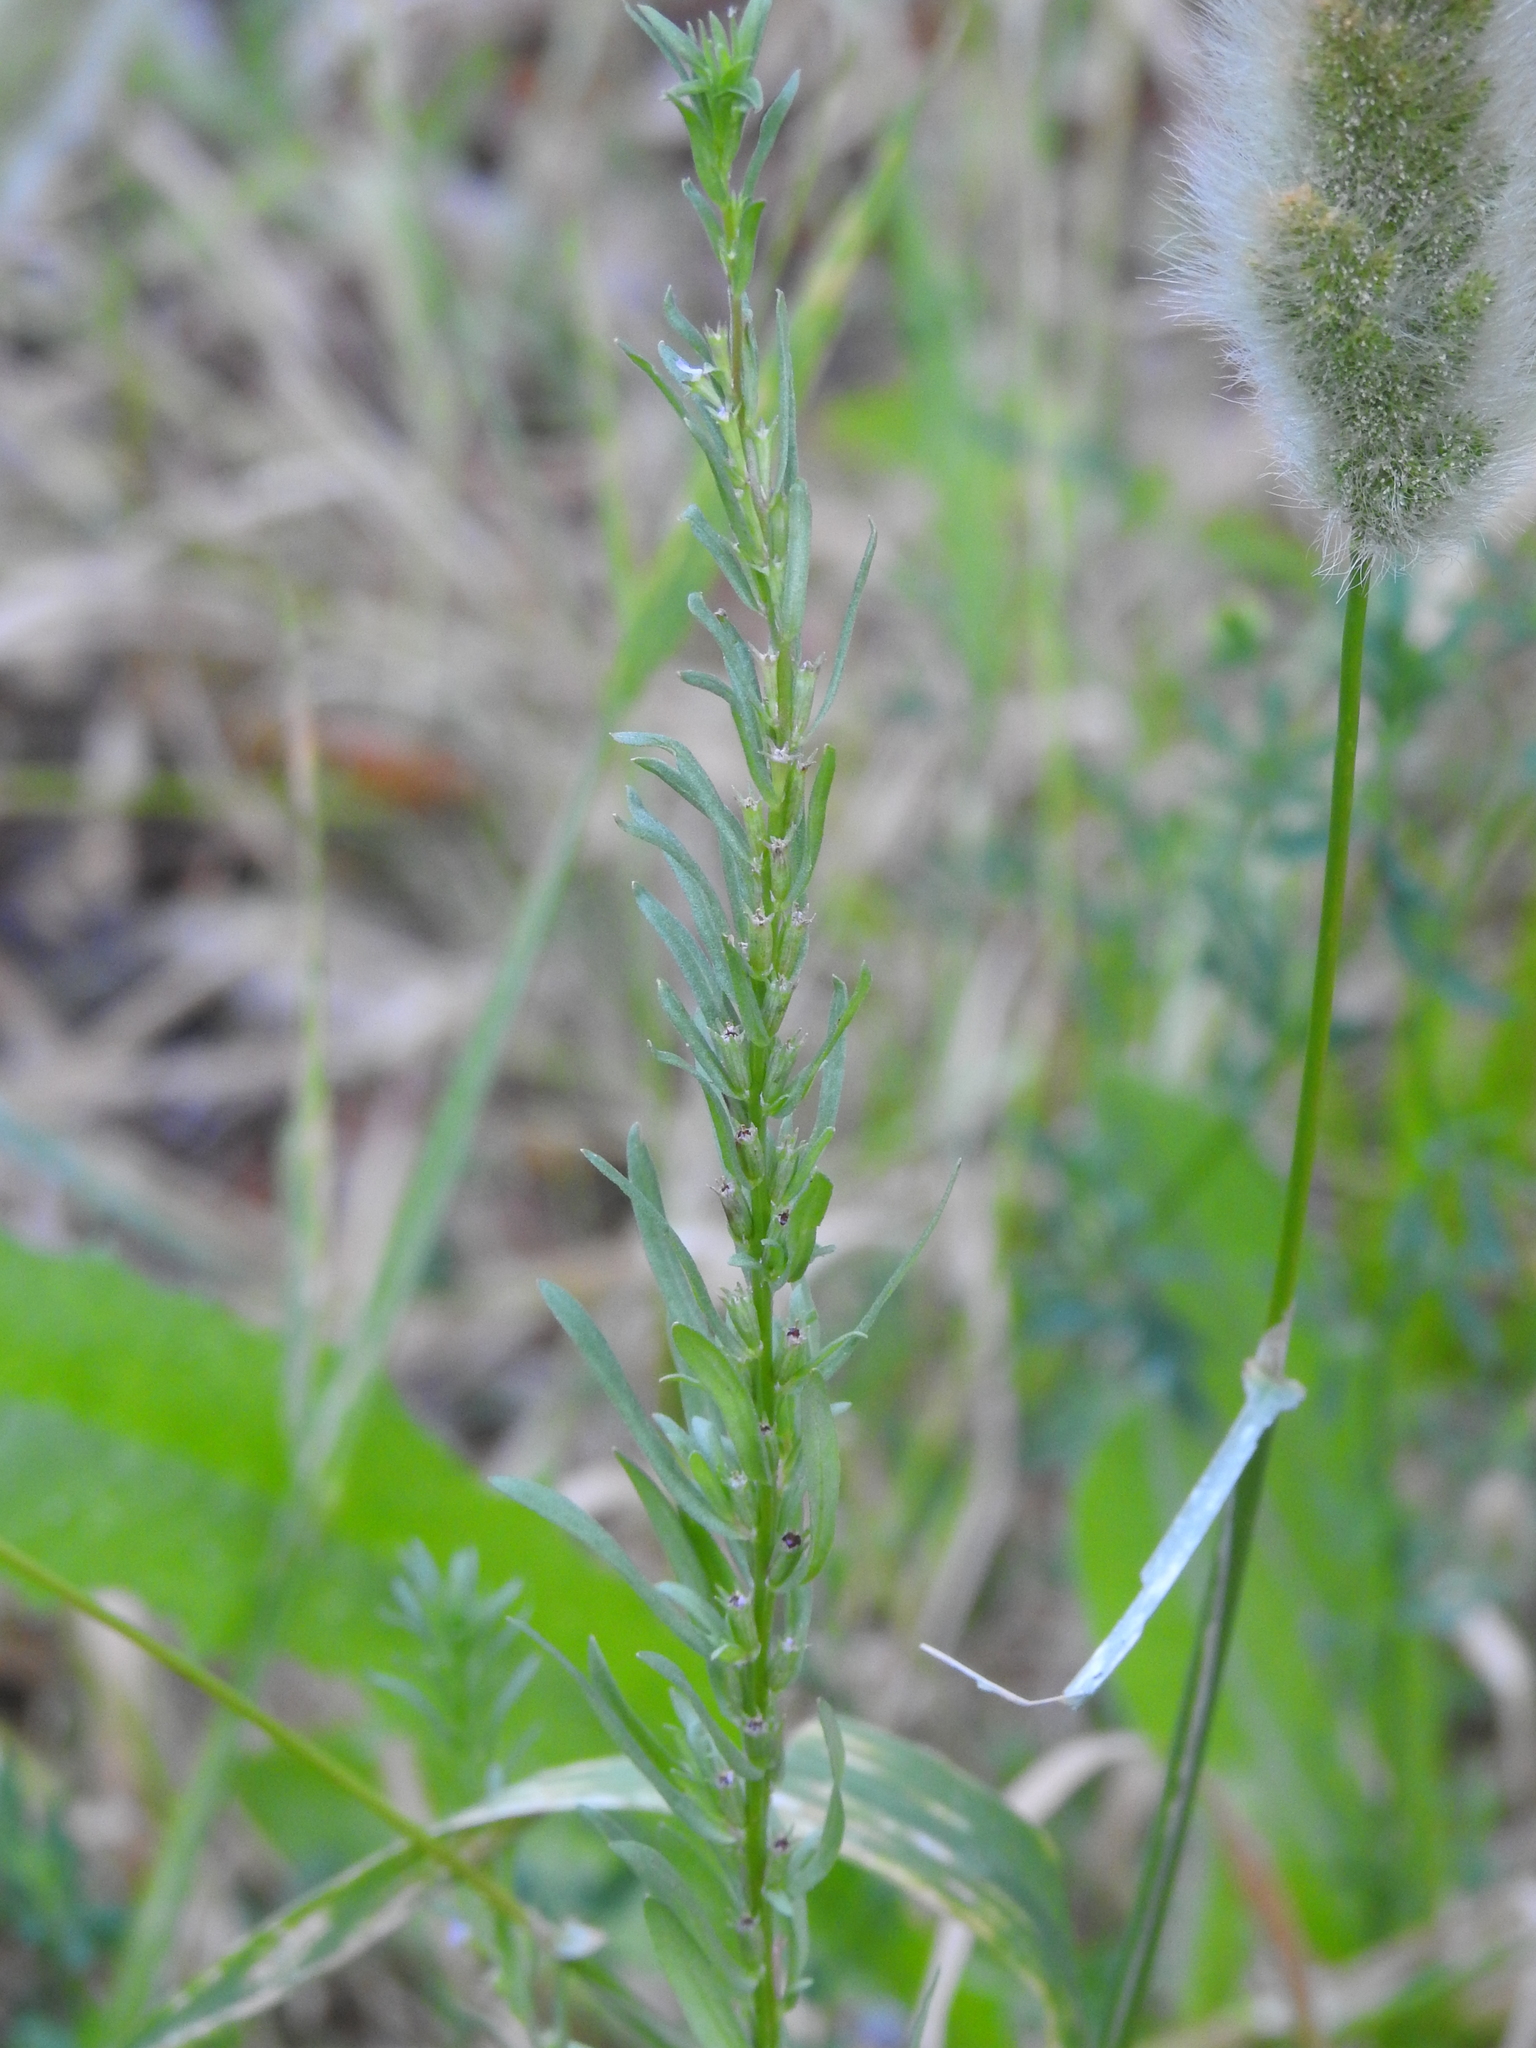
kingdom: Plantae
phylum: Tracheophyta
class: Magnoliopsida
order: Myrtales
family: Lythraceae
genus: Lythrum
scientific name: Lythrum hyssopifolia
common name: Grass-poly
